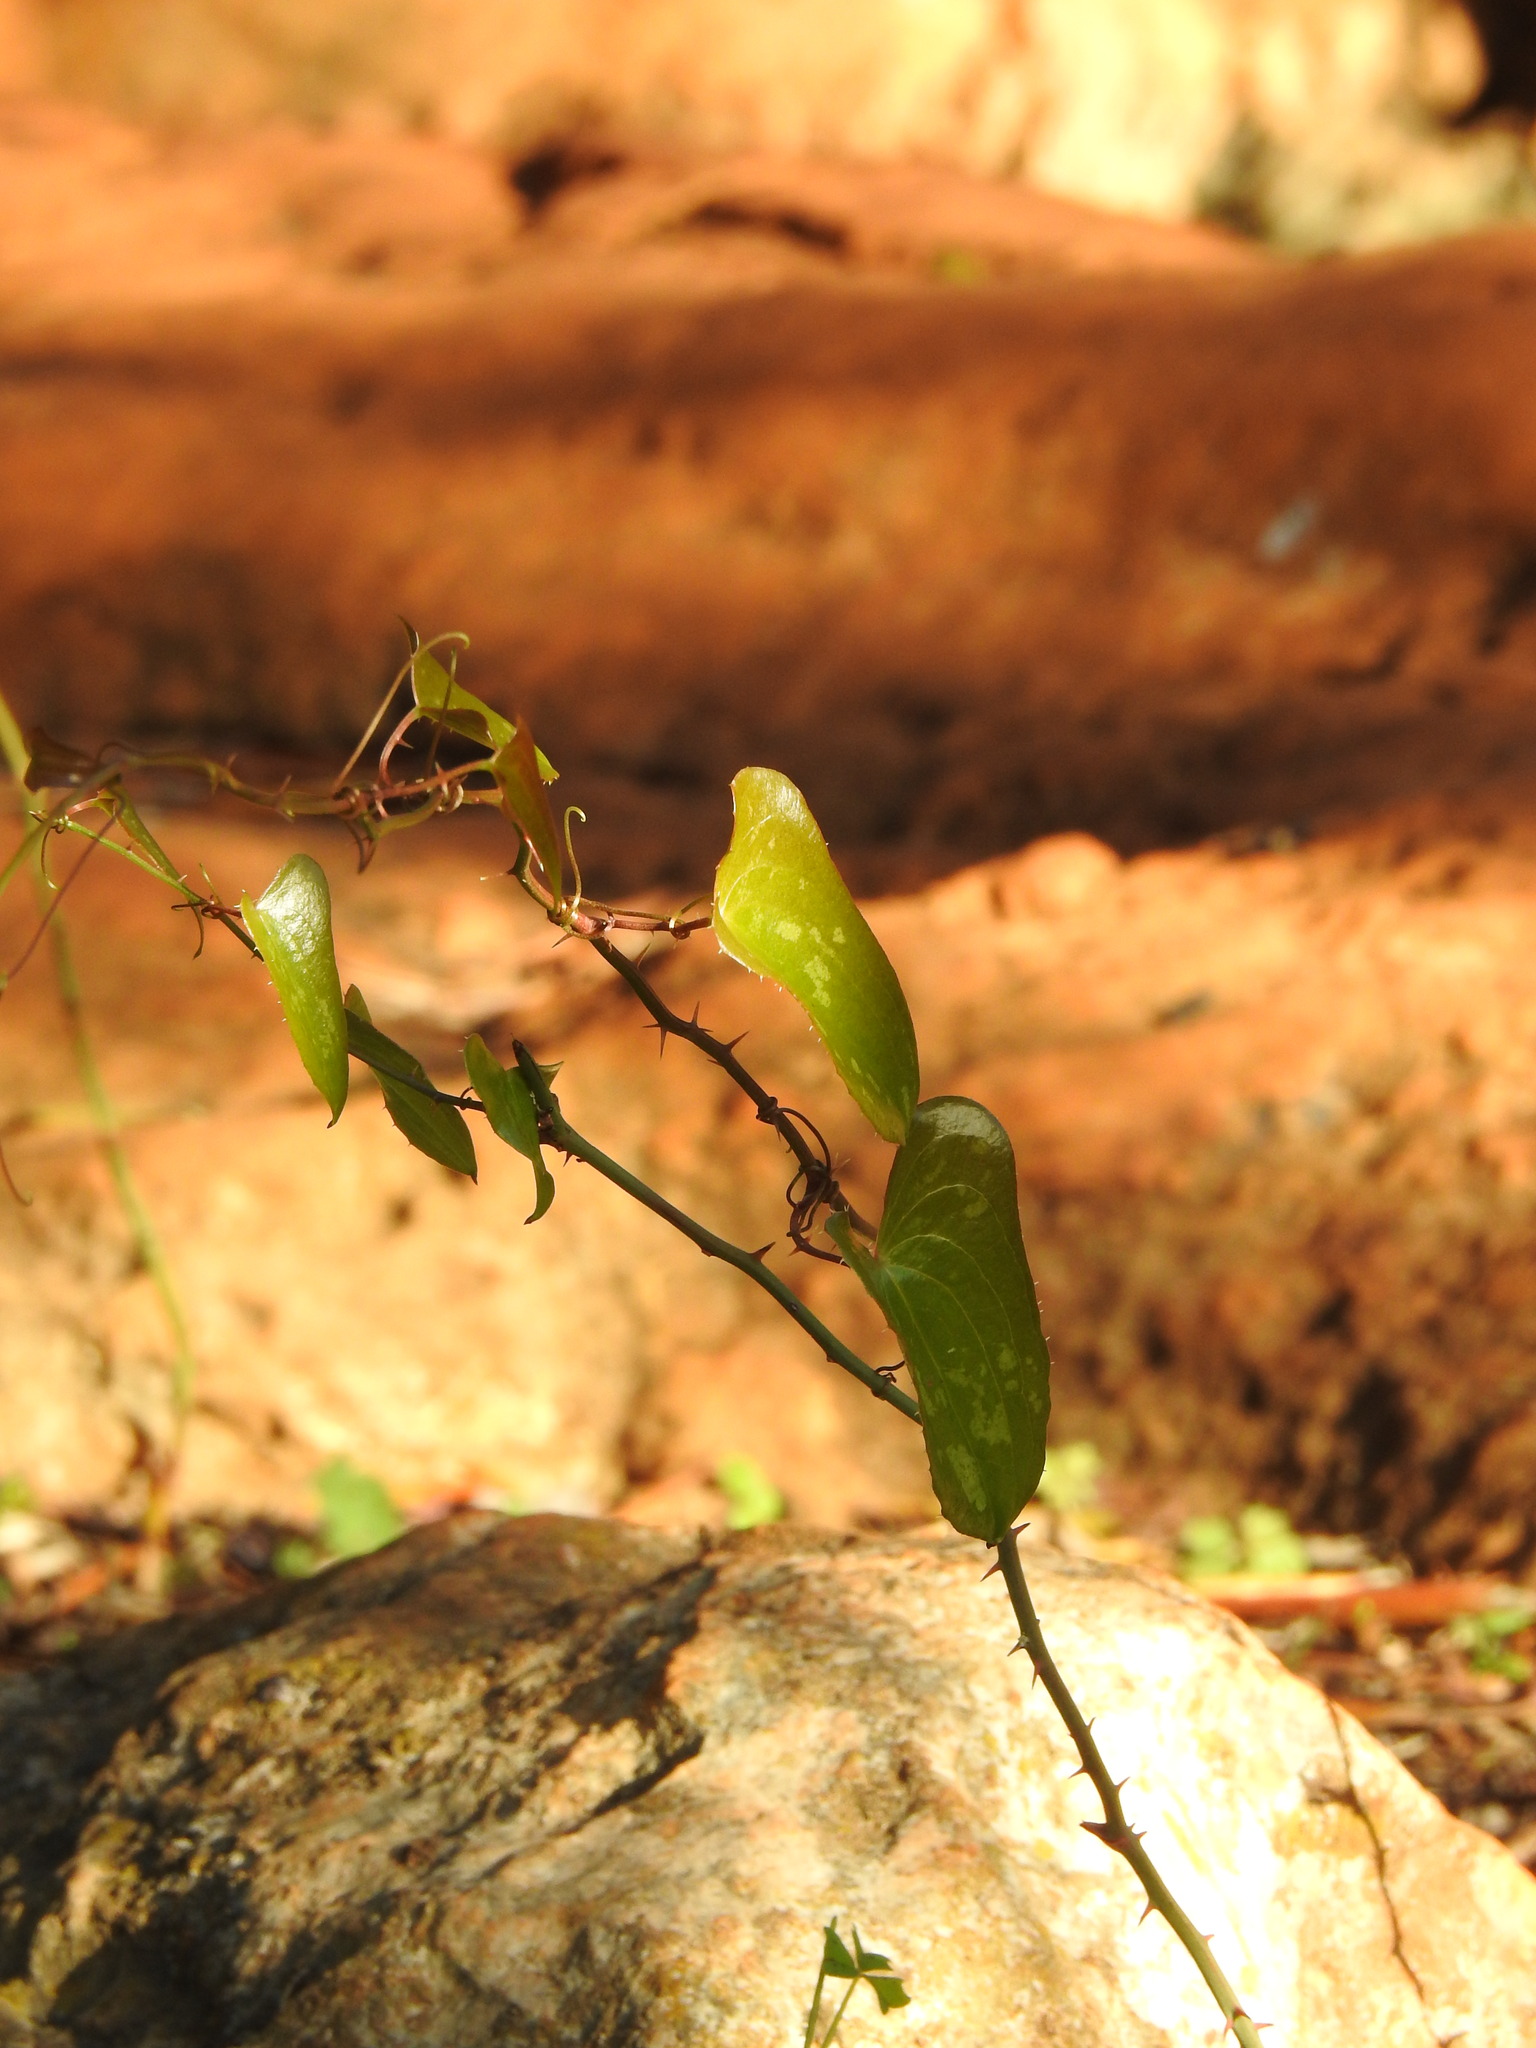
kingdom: Plantae
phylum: Tracheophyta
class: Liliopsida
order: Liliales
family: Smilacaceae
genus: Smilax
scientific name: Smilax aspera
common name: Common smilax
